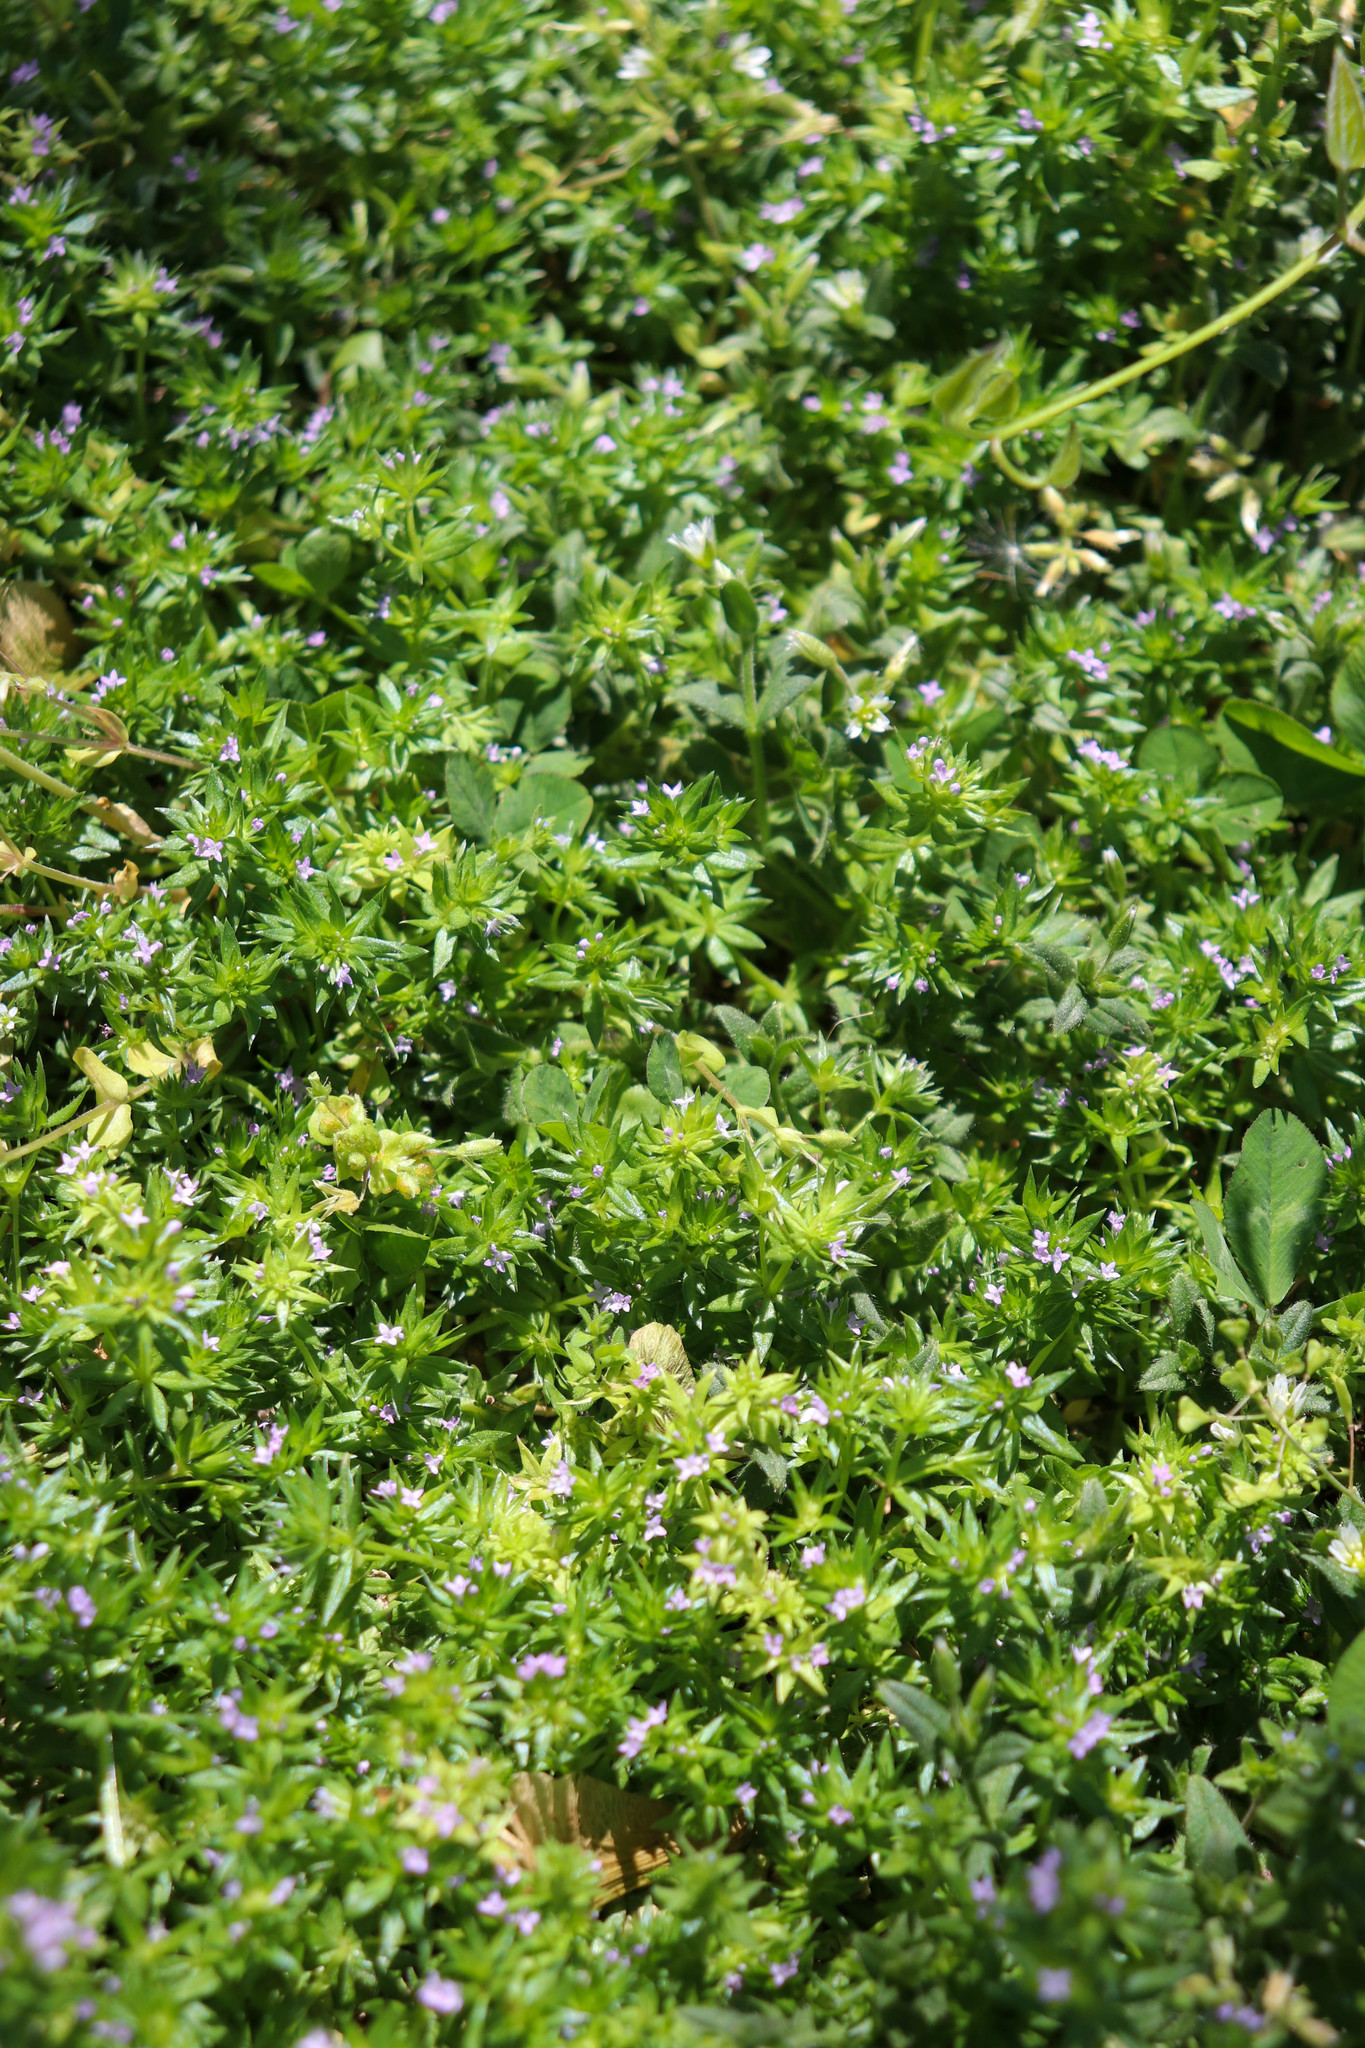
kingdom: Plantae
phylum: Tracheophyta
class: Magnoliopsida
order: Gentianales
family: Rubiaceae
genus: Sherardia
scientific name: Sherardia arvensis
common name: Field madder
